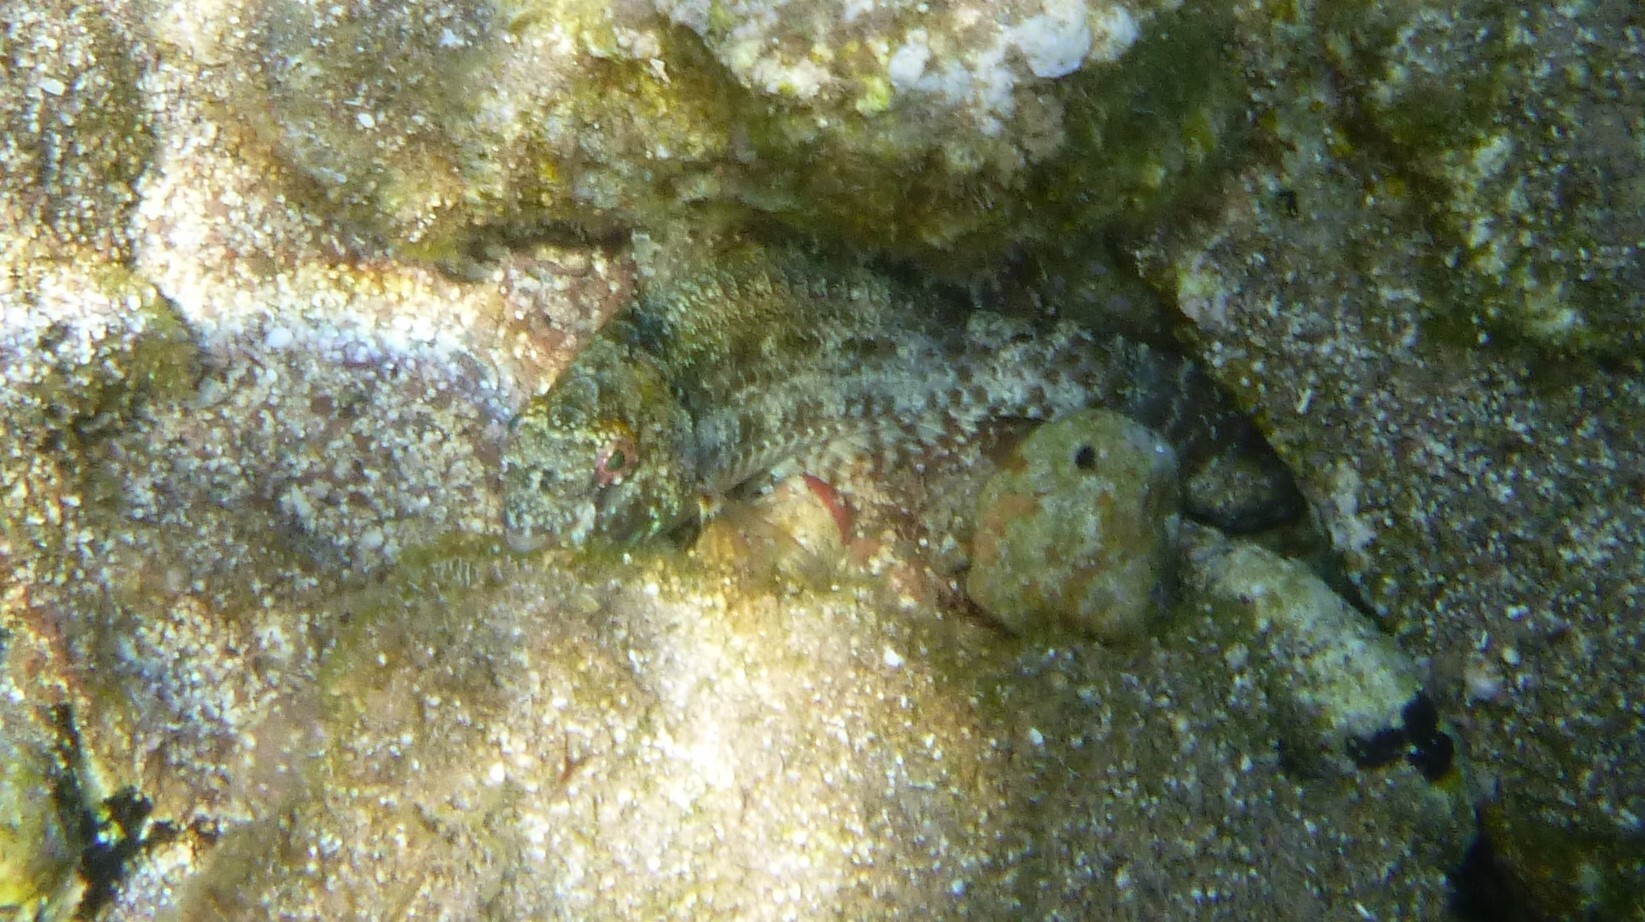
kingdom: Animalia
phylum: Chordata
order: Perciformes
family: Scaridae
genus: Sparisoma
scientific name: Sparisoma cretense
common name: Parrotfish
